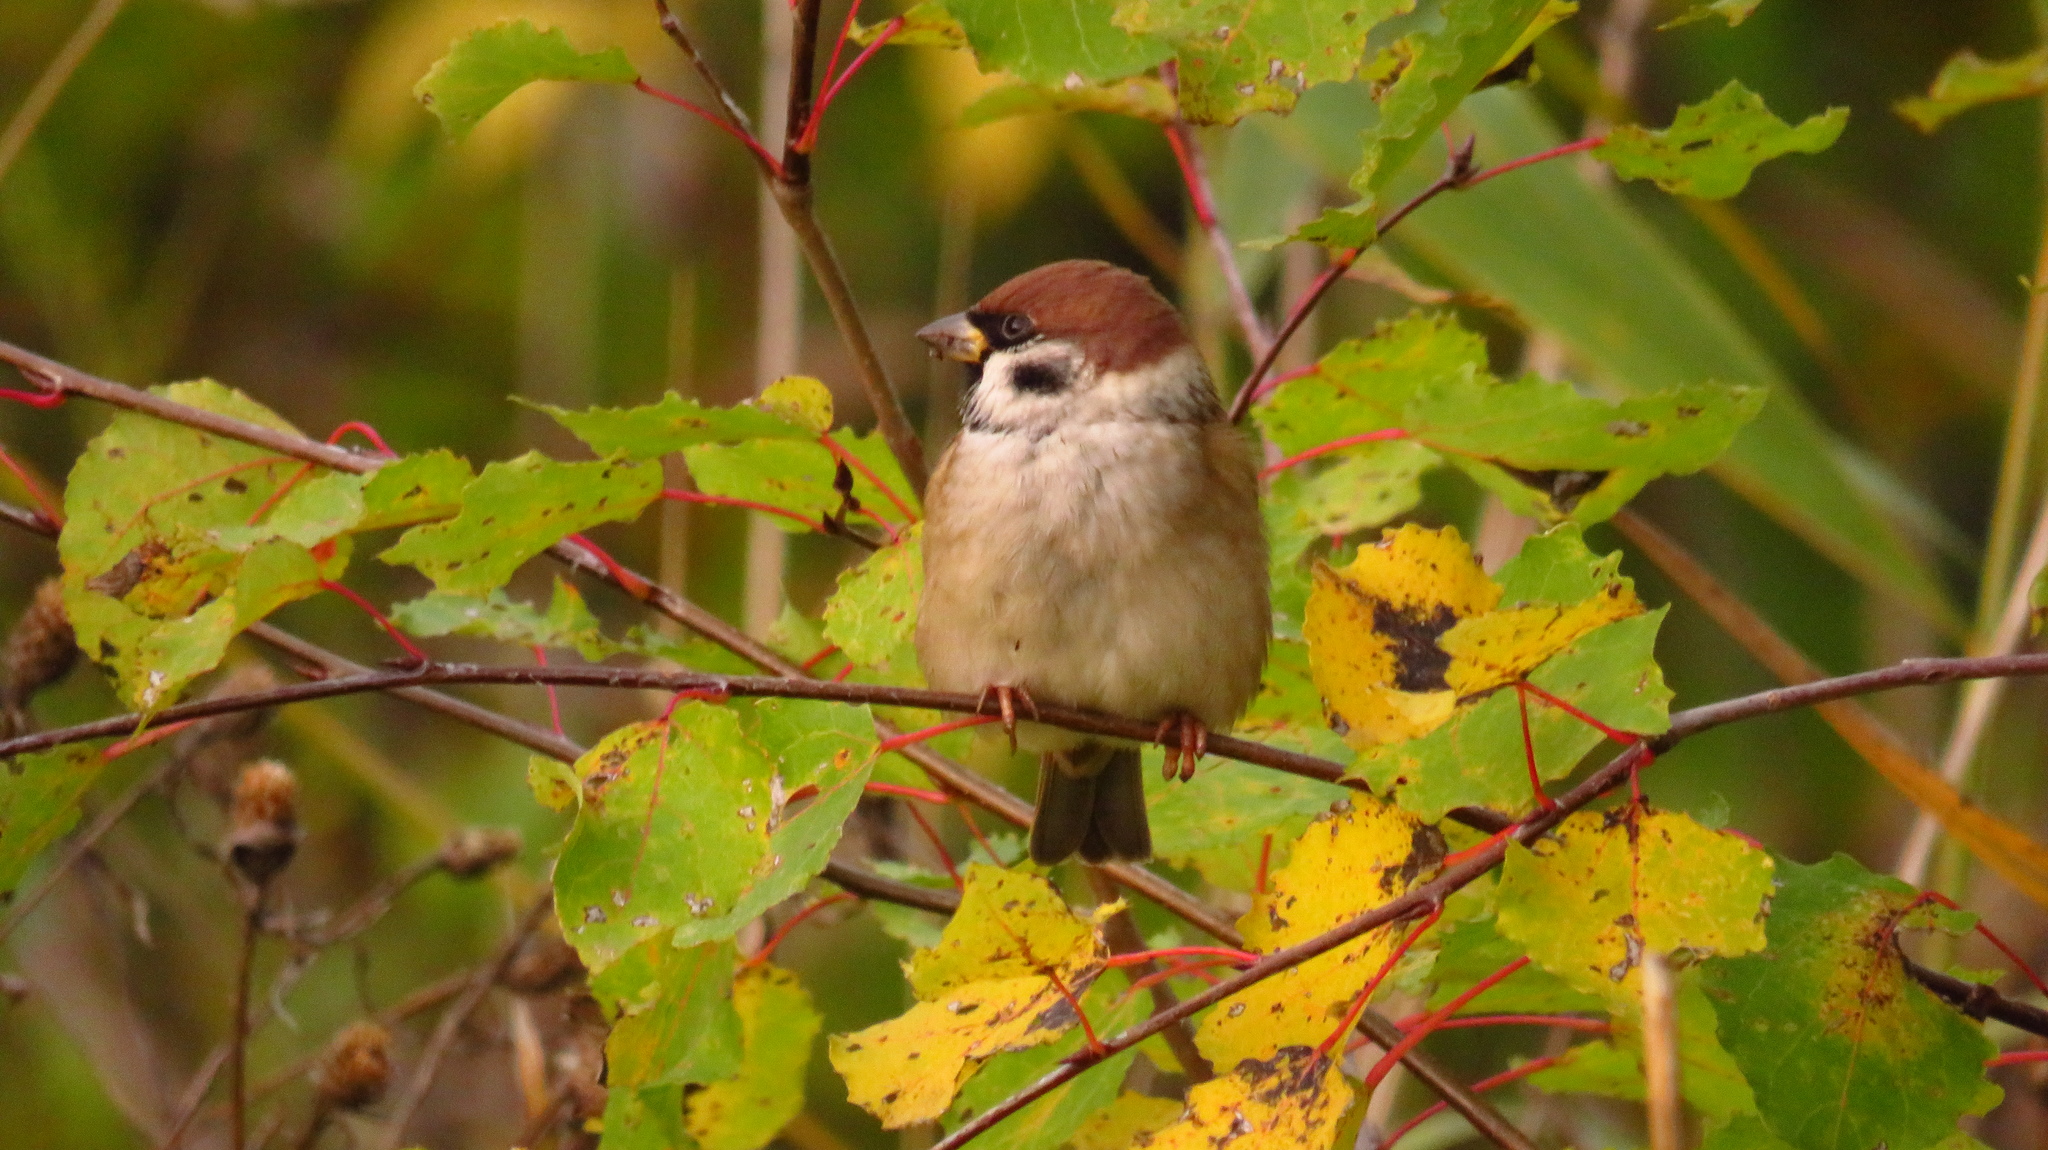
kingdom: Animalia
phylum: Chordata
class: Aves
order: Passeriformes
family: Passeridae
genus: Passer
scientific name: Passer montanus
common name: Eurasian tree sparrow
